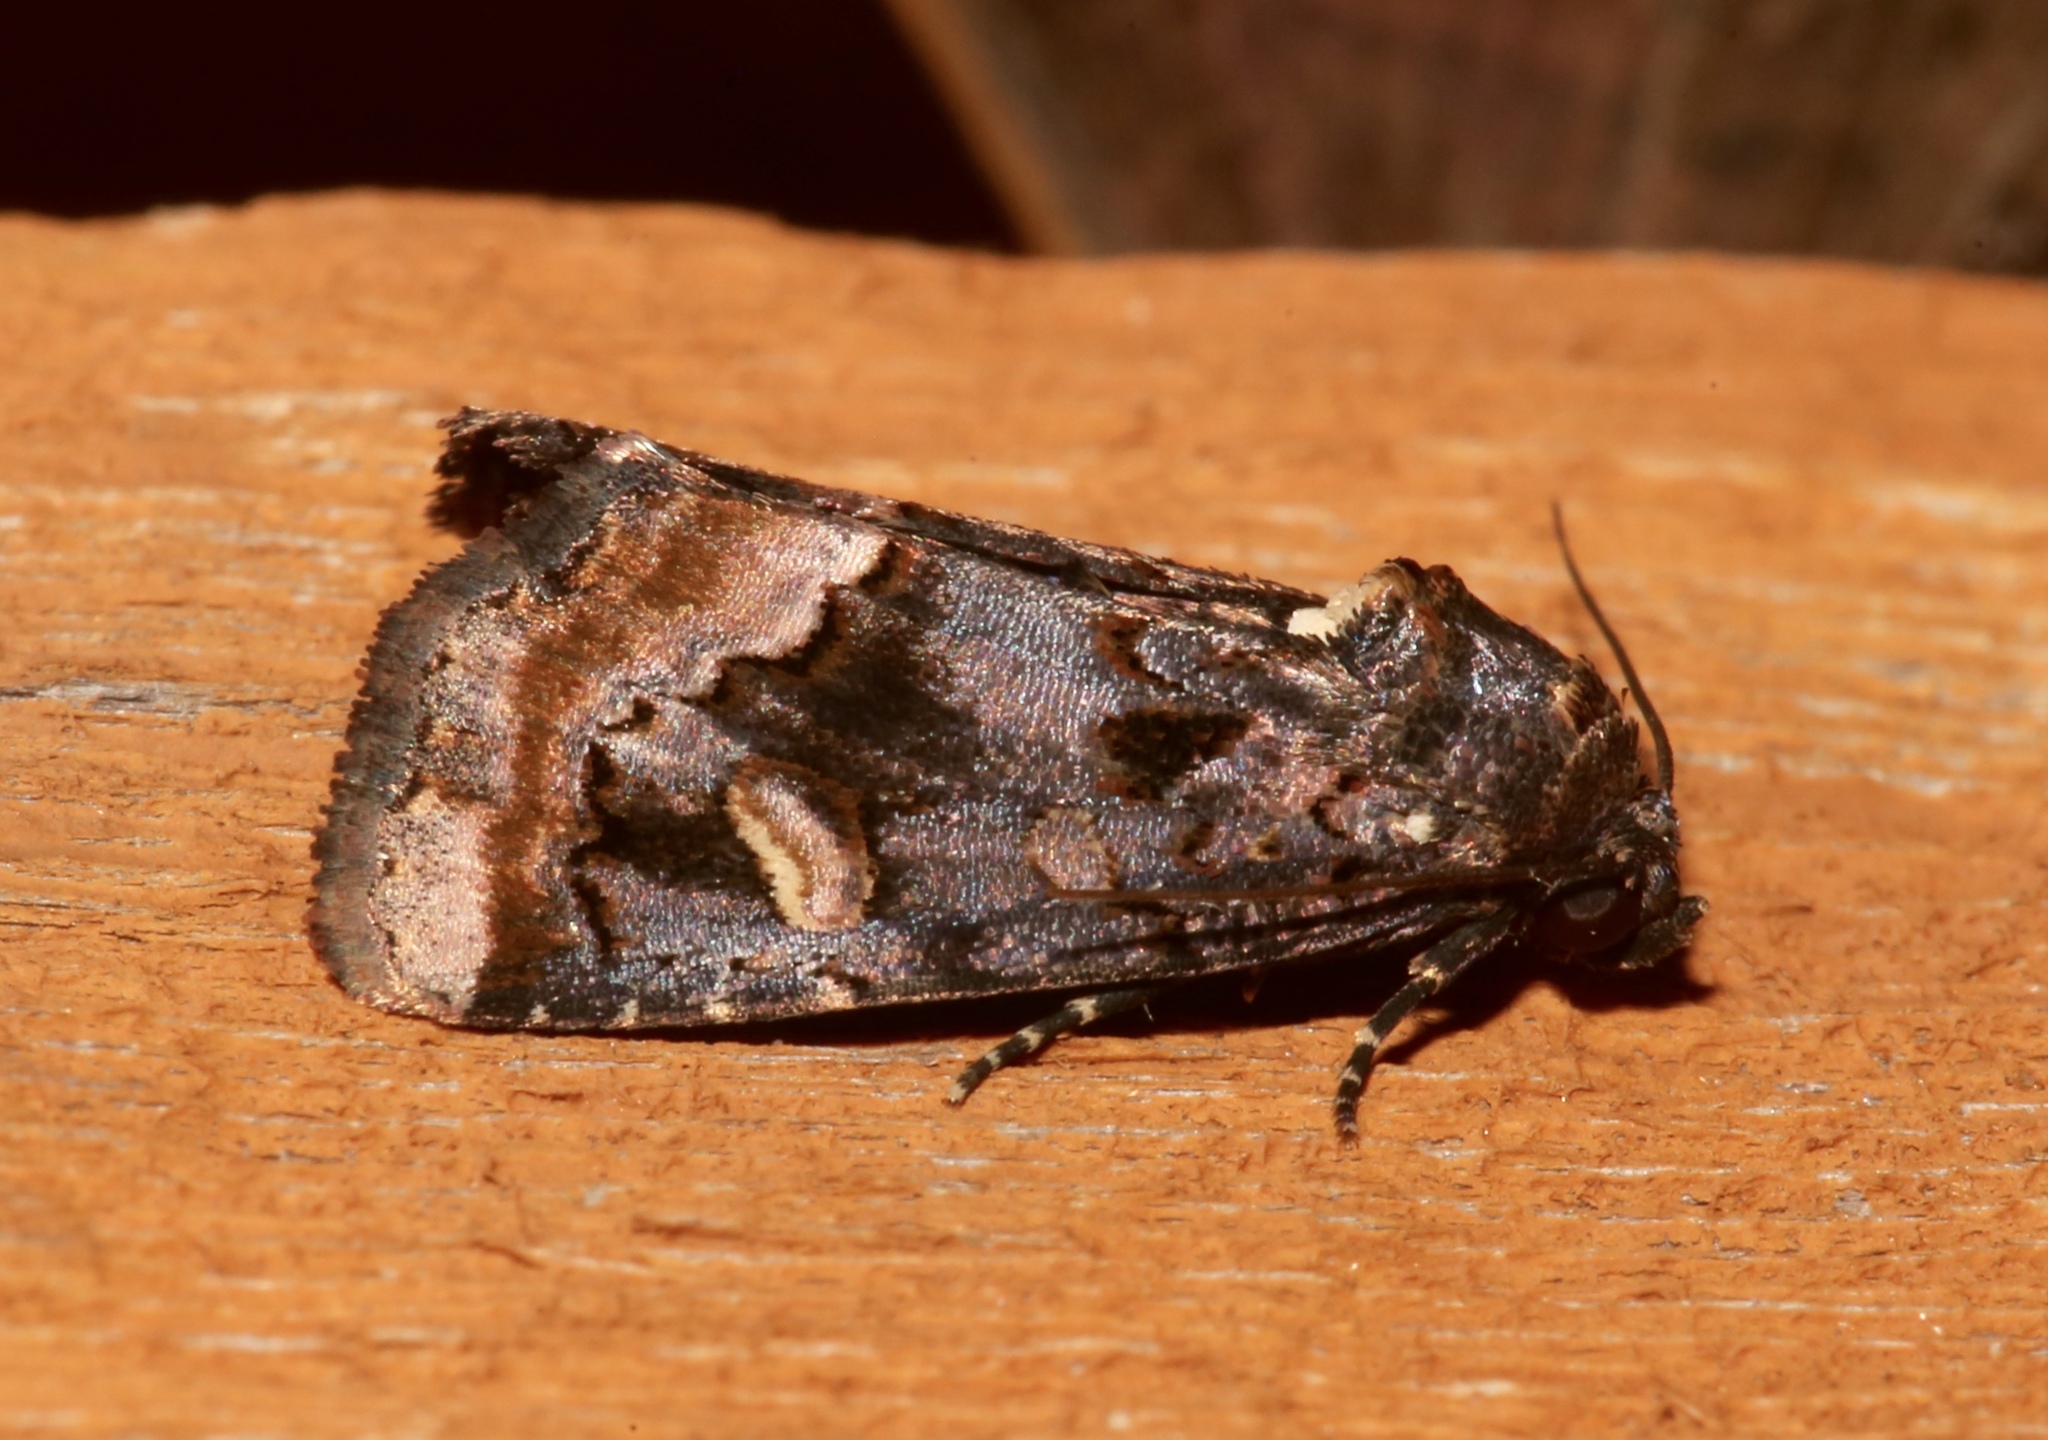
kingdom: Animalia
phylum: Arthropoda
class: Insecta
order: Lepidoptera
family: Noctuidae
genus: Homophoberia
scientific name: Homophoberia apicosa
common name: Black wedge-spot
